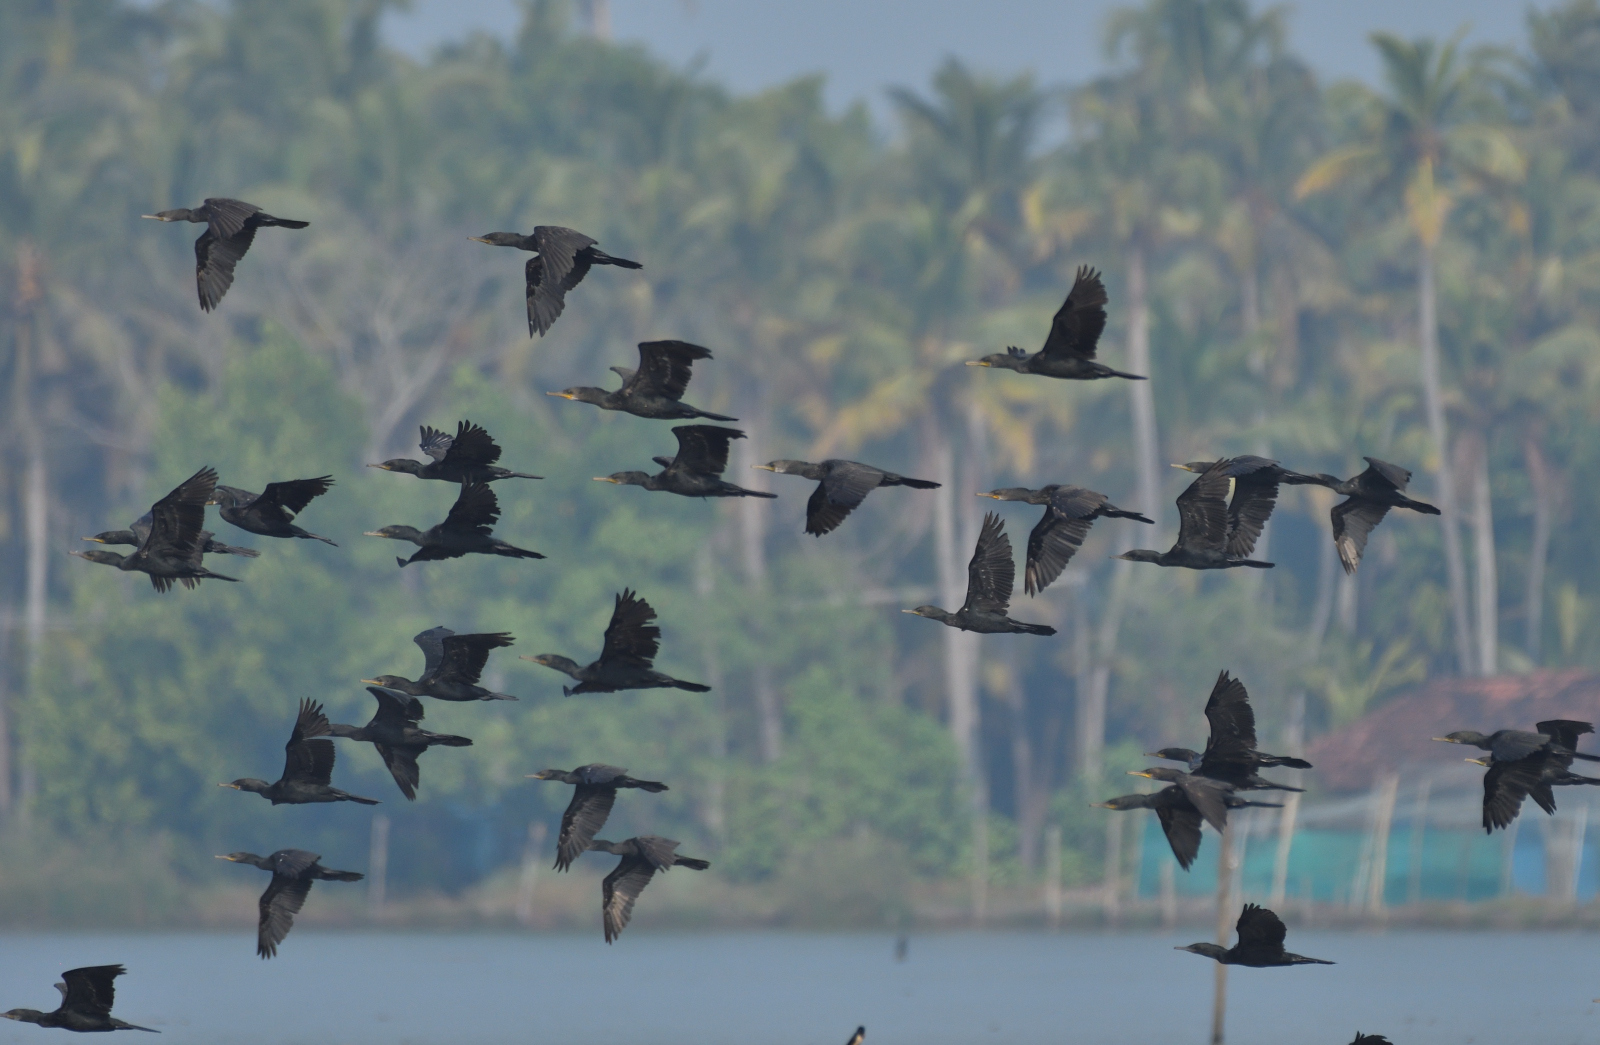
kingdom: Animalia
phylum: Chordata
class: Aves
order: Suliformes
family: Phalacrocoracidae
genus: Phalacrocorax
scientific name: Phalacrocorax fuscicollis
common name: Indian cormorant
